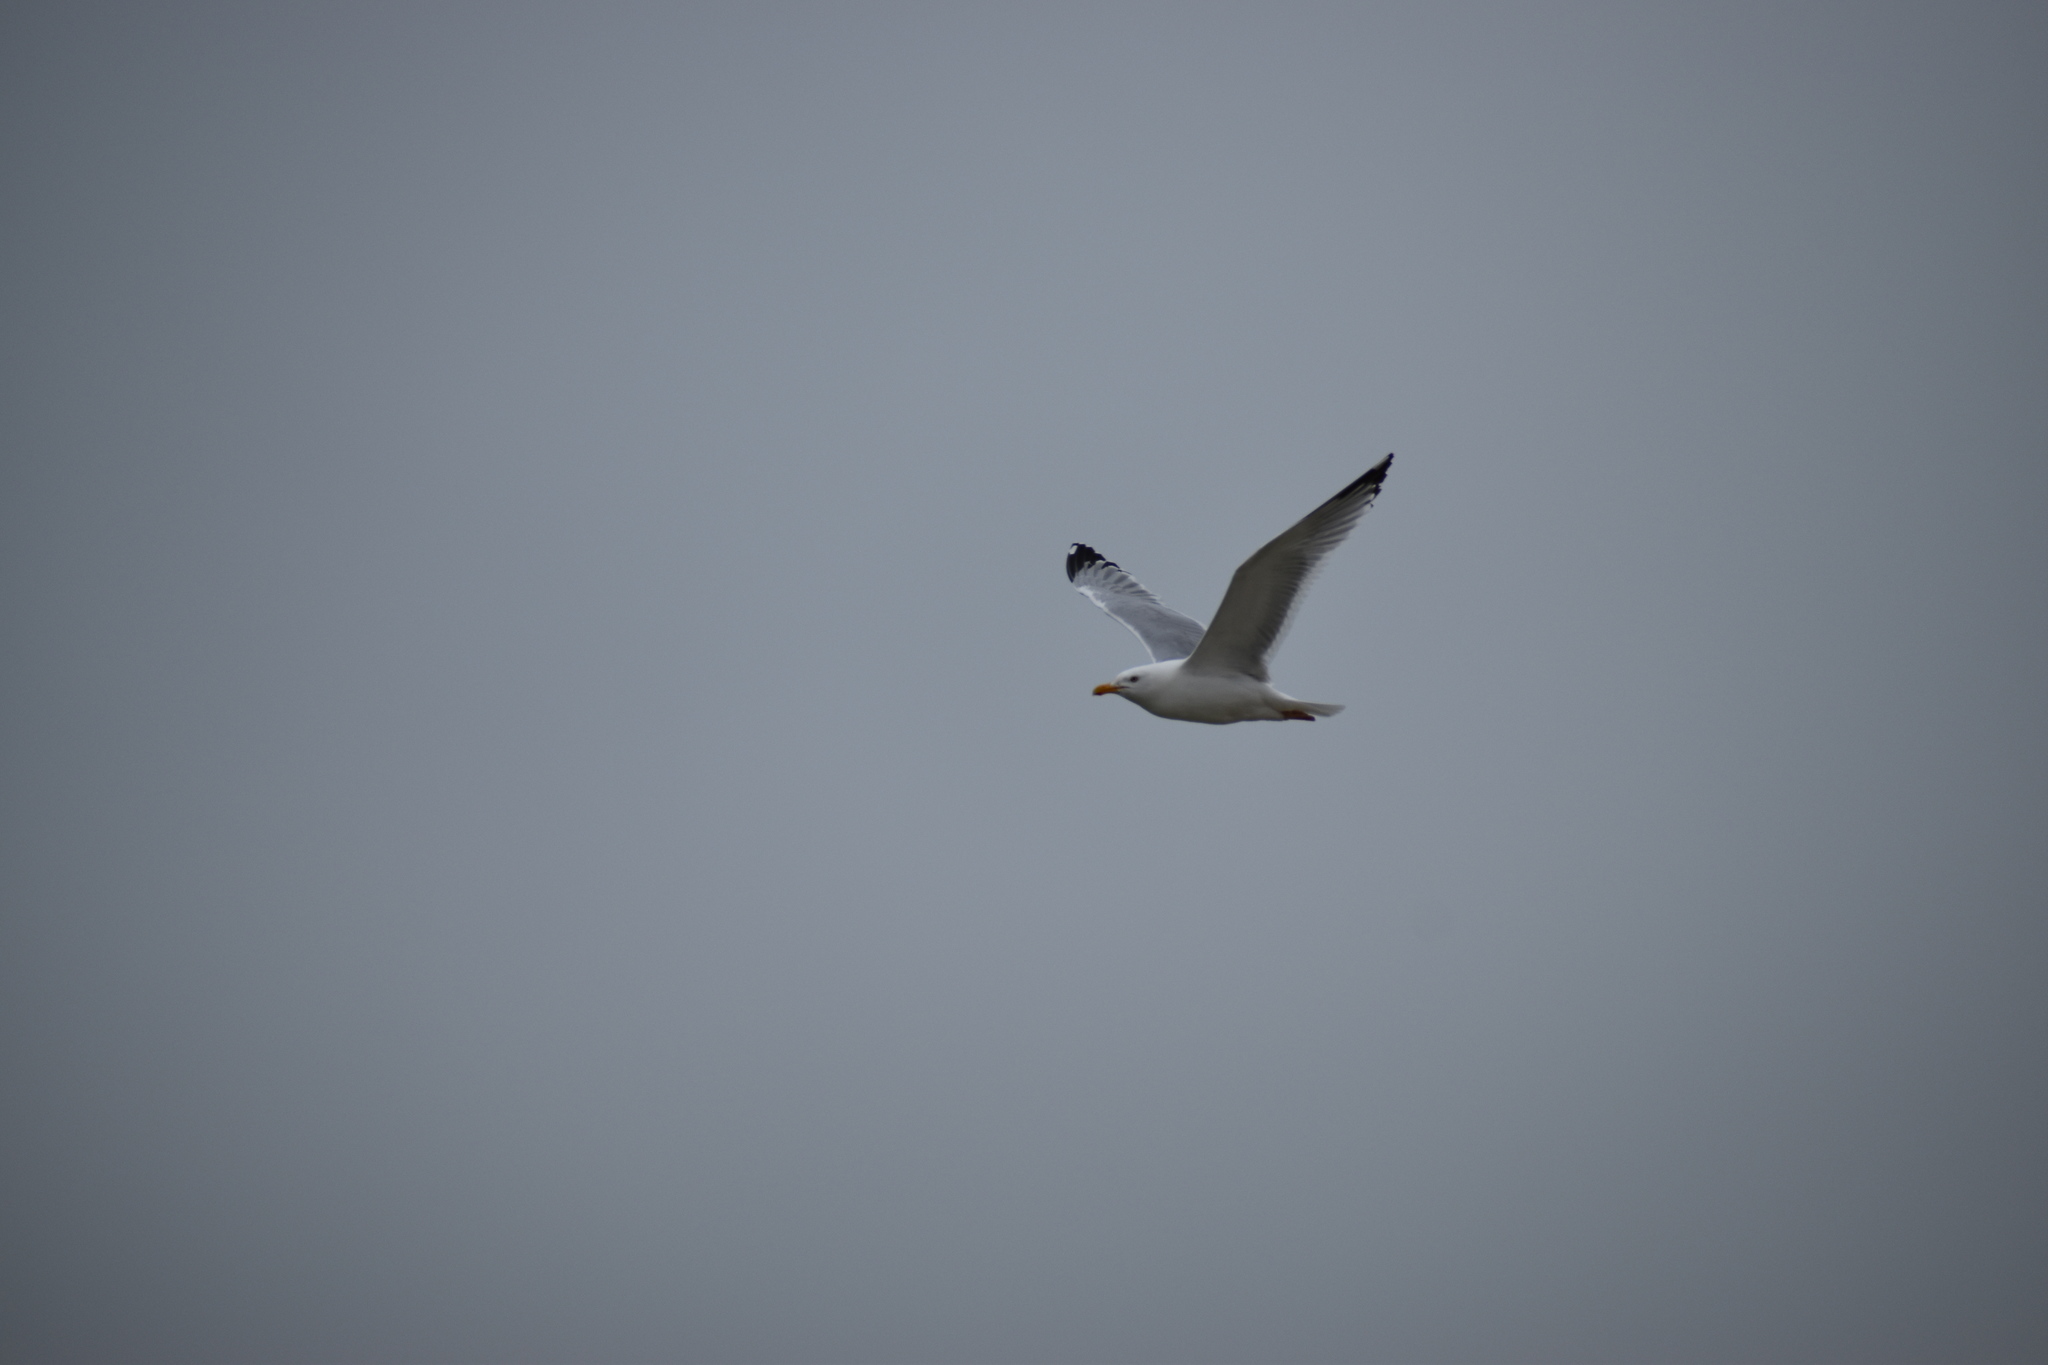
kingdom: Animalia
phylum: Chordata
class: Aves
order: Charadriiformes
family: Laridae
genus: Larus
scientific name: Larus argentatus
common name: Herring gull
